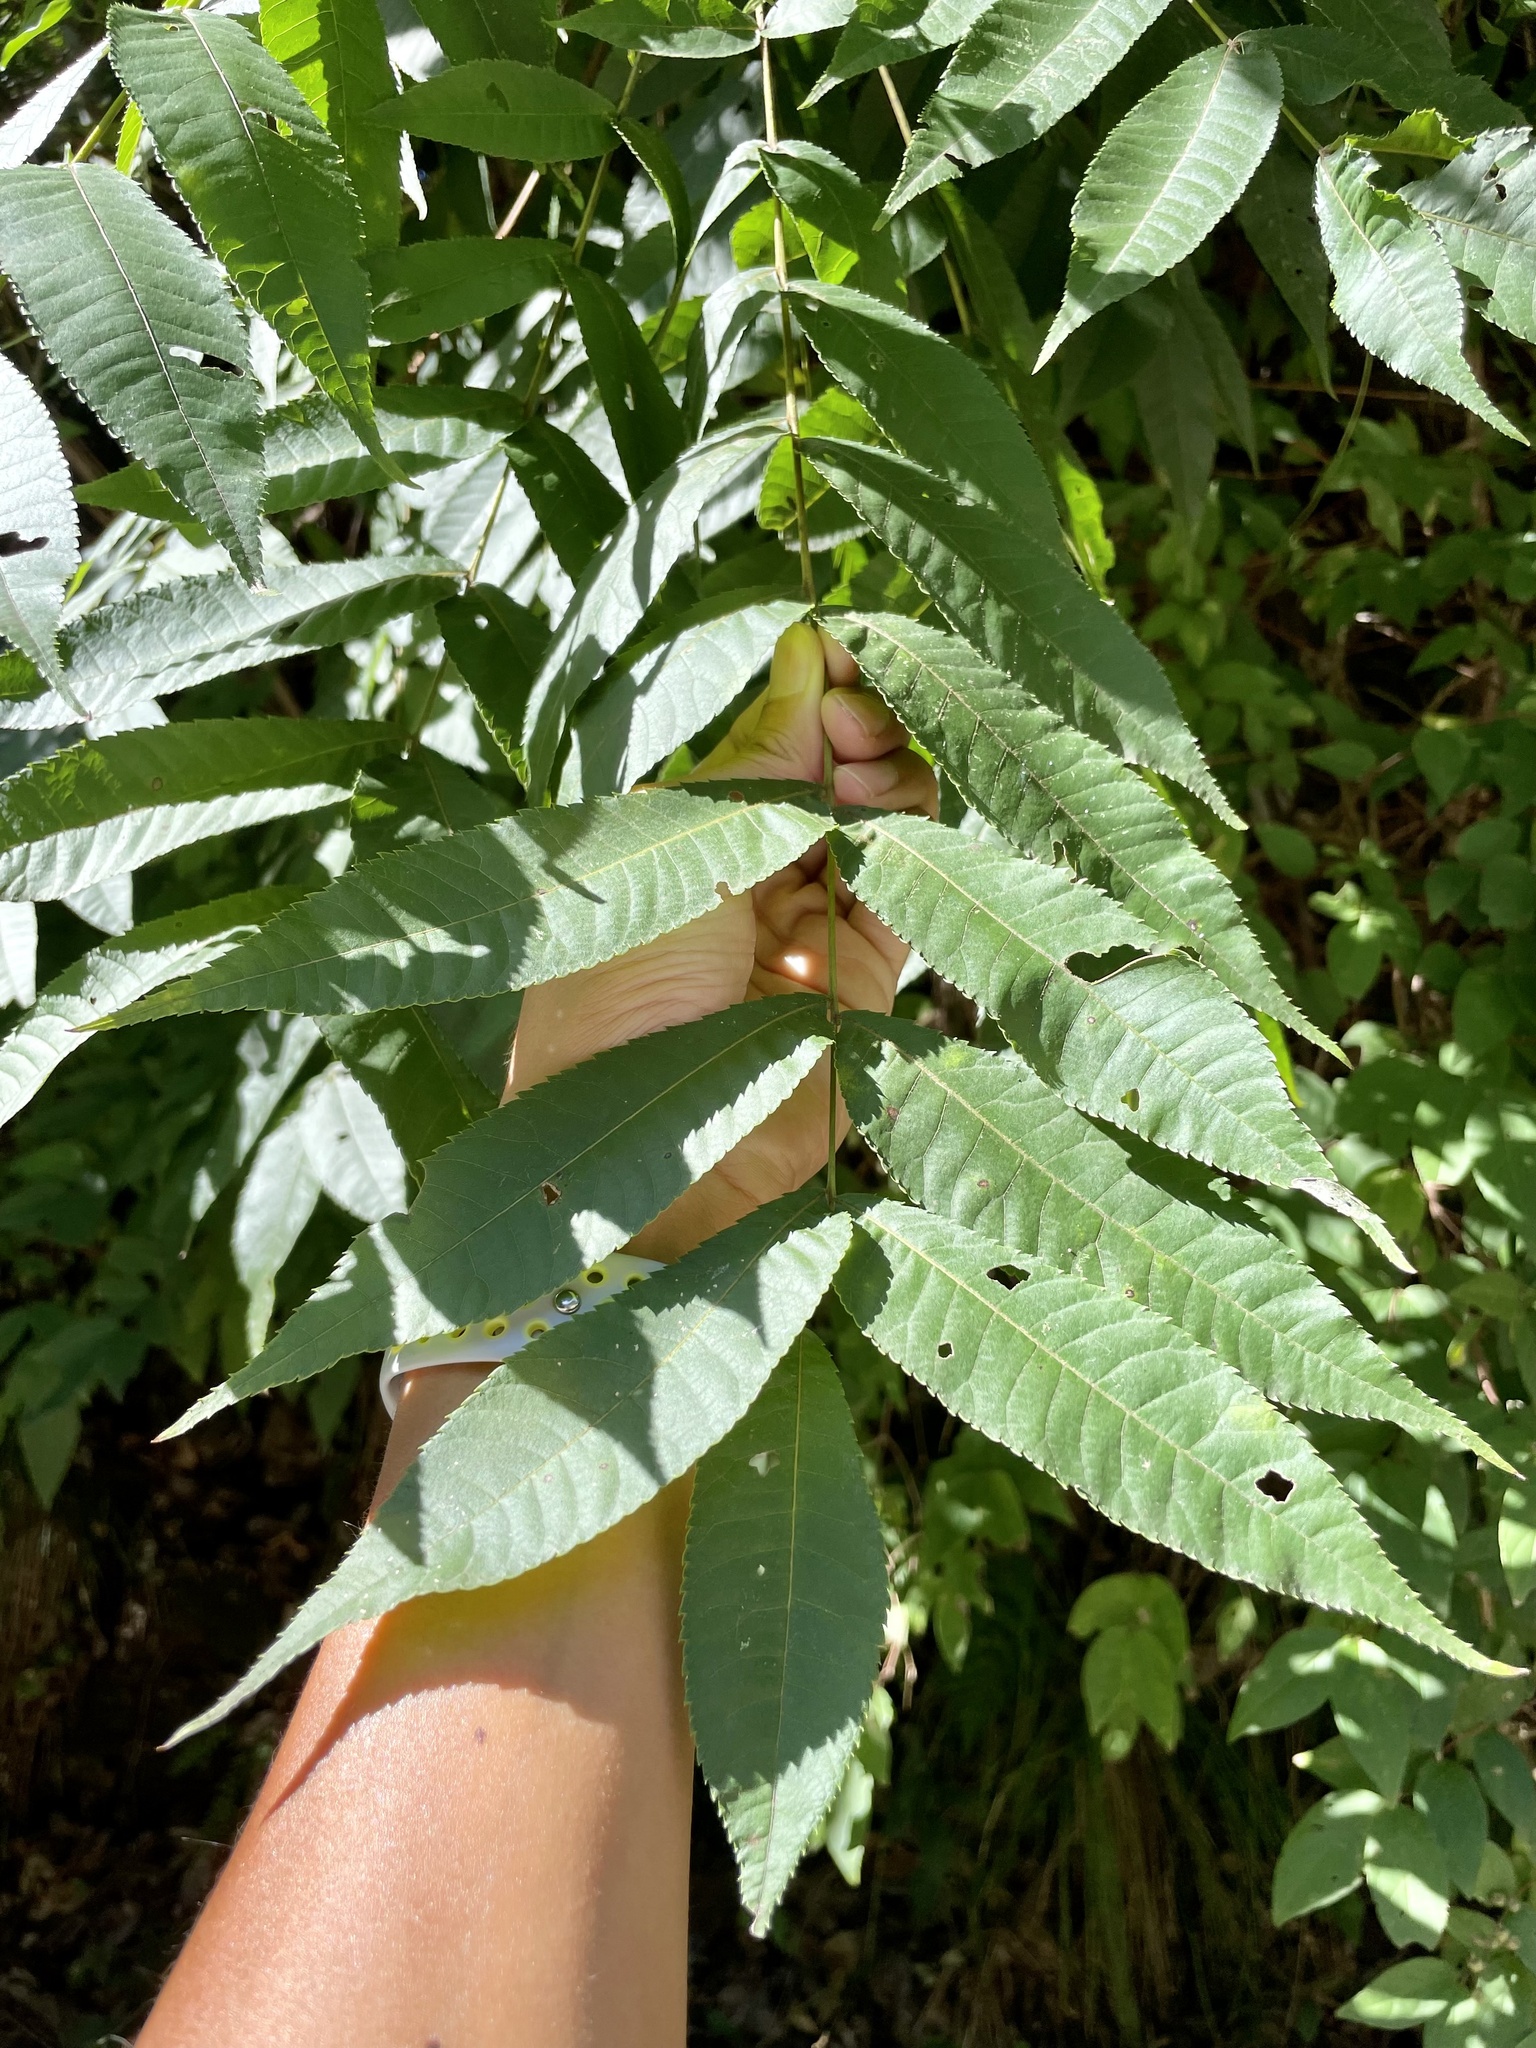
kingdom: Plantae
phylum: Tracheophyta
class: Magnoliopsida
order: Fagales
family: Juglandaceae
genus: Platycarya
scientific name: Platycarya strobilacea
